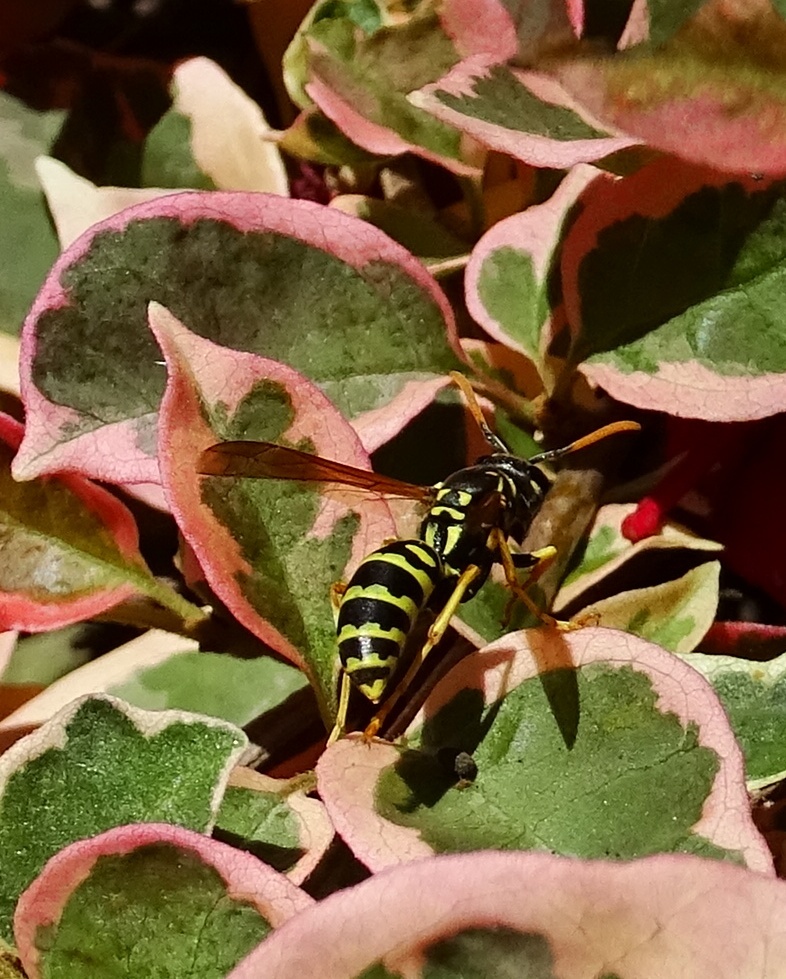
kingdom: Animalia
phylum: Arthropoda
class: Insecta
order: Hymenoptera
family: Eumenidae
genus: Polistes
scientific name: Polistes dominula
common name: Paper wasp
